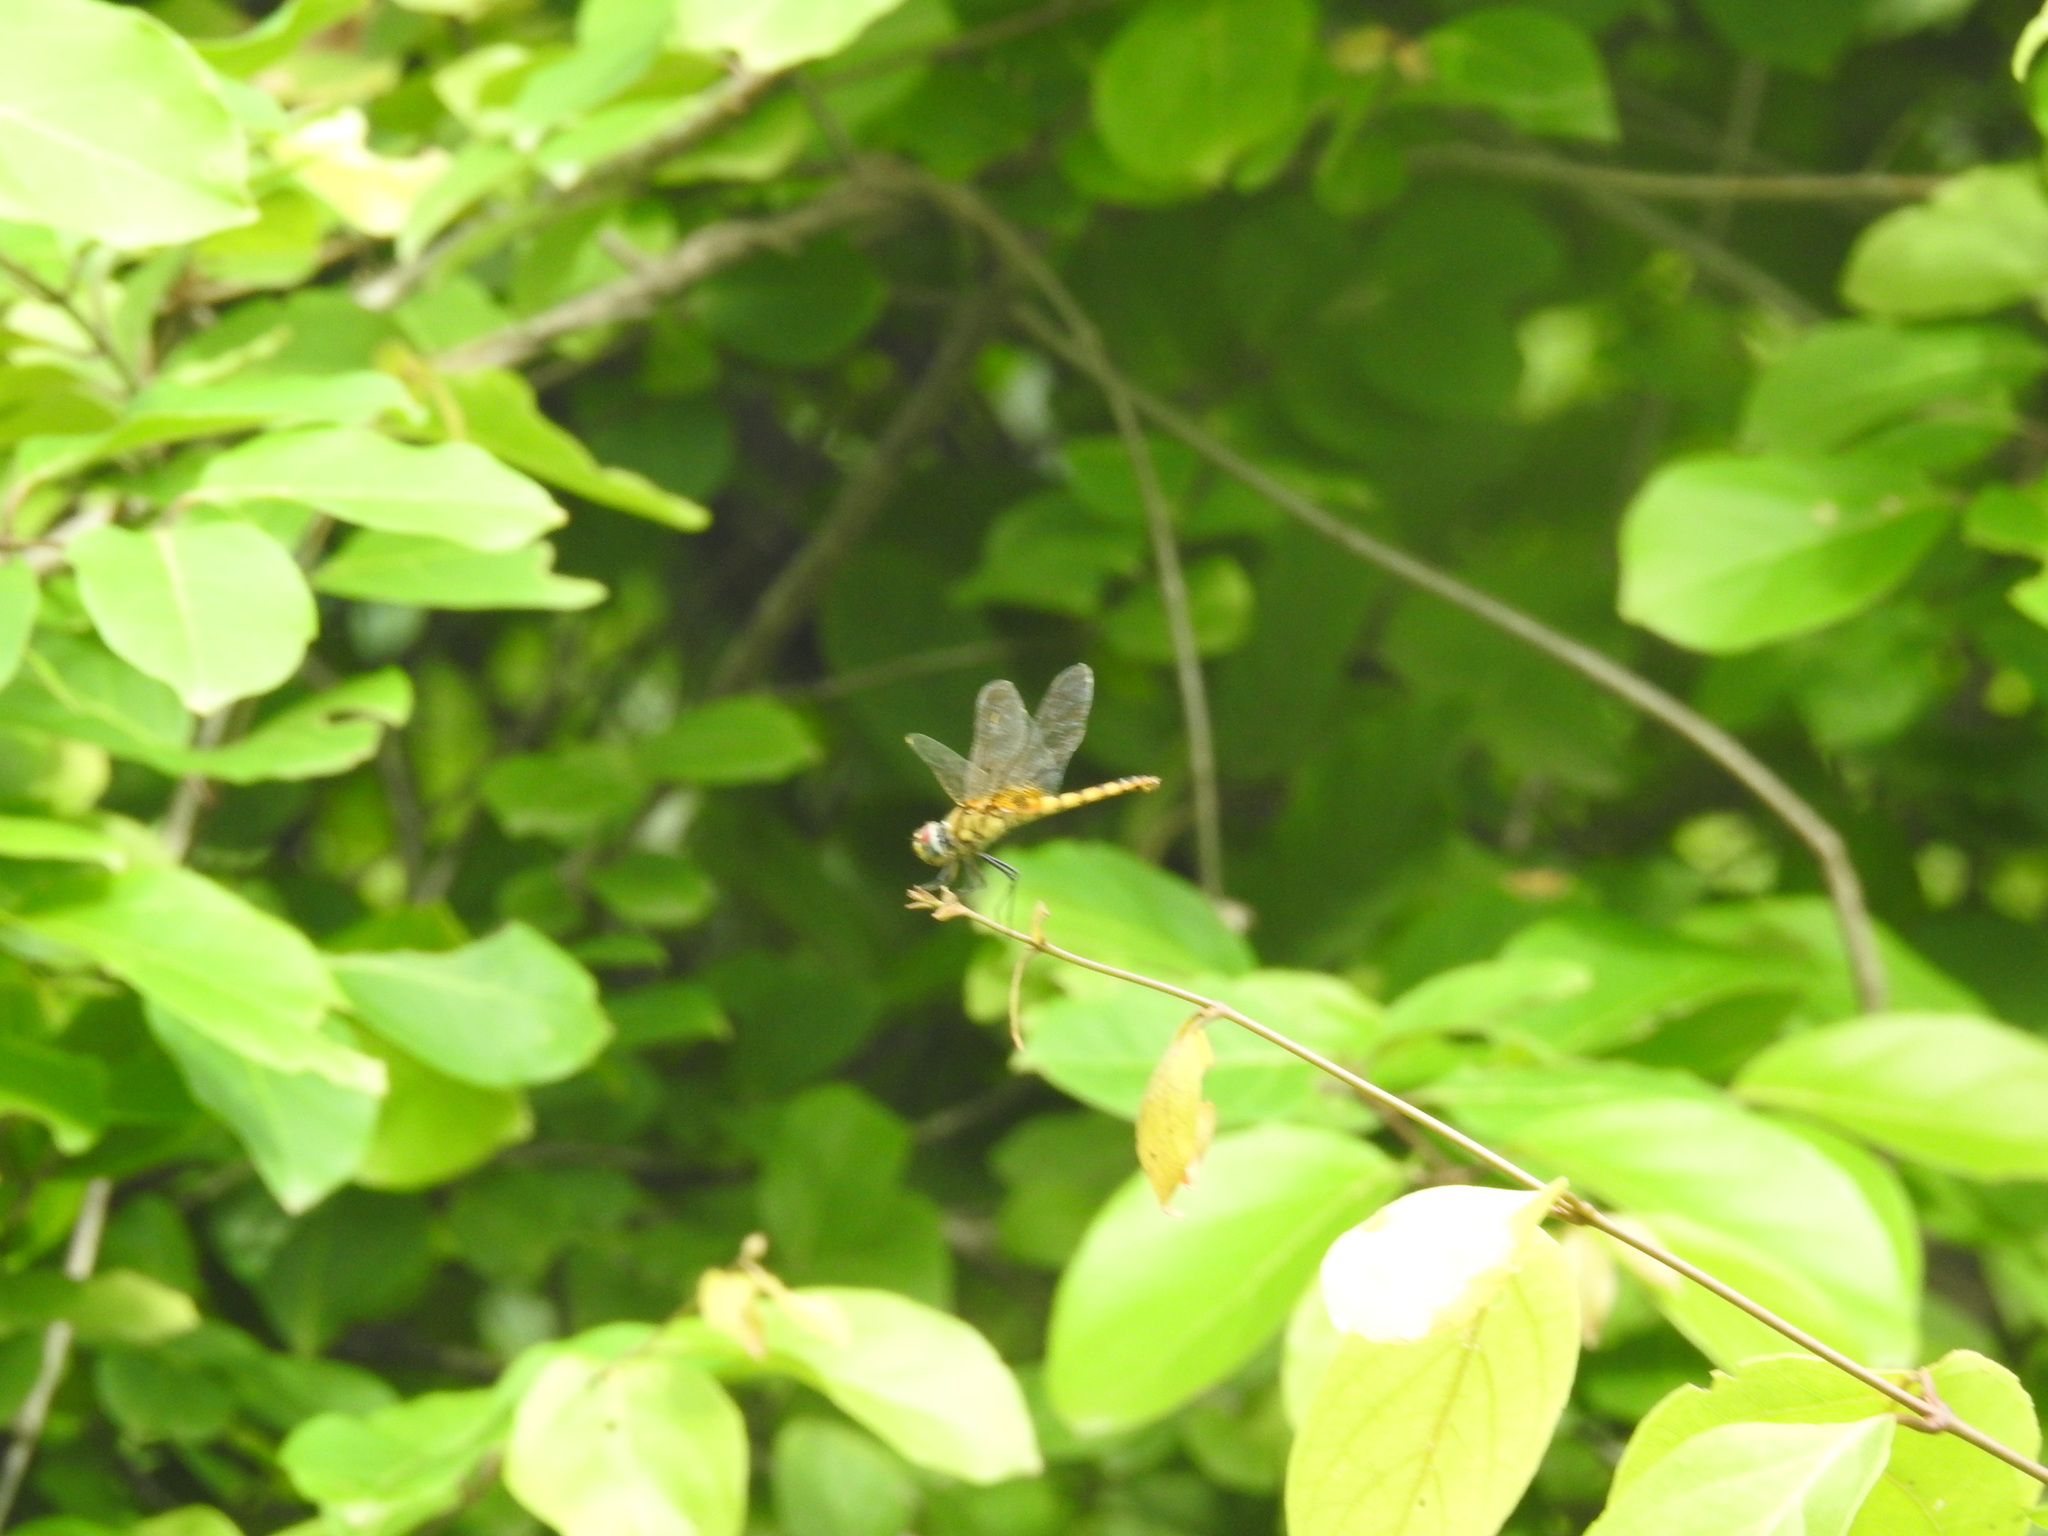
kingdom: Animalia
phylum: Arthropoda
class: Insecta
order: Odonata
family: Libellulidae
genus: Urothemis
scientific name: Urothemis signata
